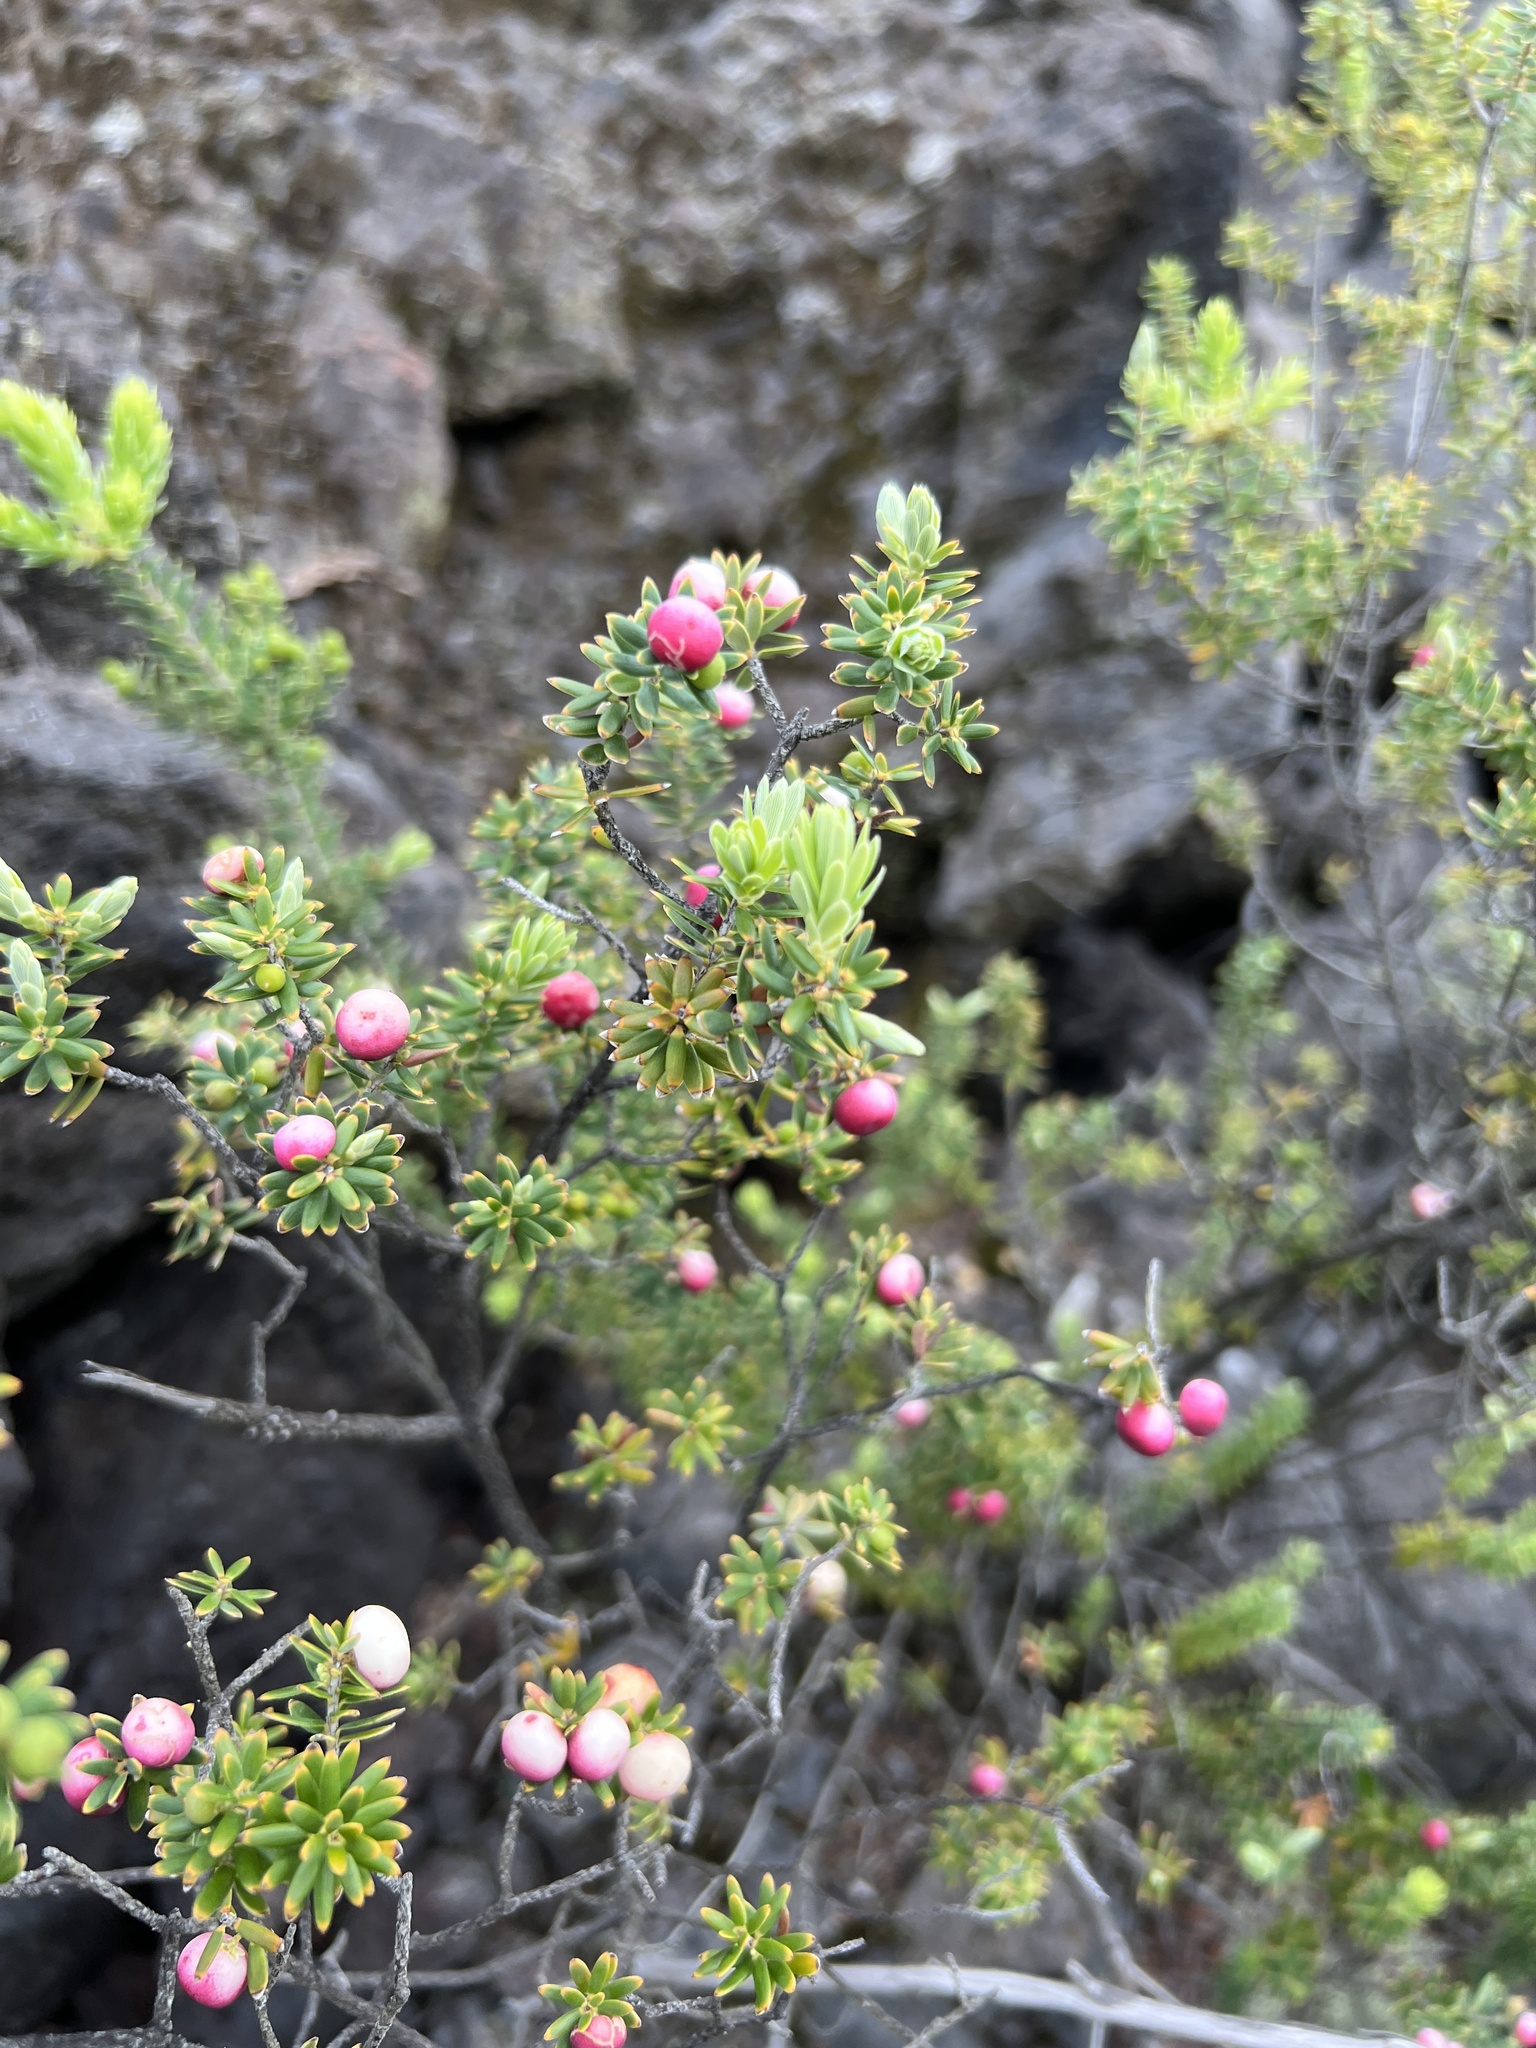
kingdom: Plantae
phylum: Tracheophyta
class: Magnoliopsida
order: Ericales
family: Ericaceae
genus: Leptecophylla
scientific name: Leptecophylla tameiameiae
